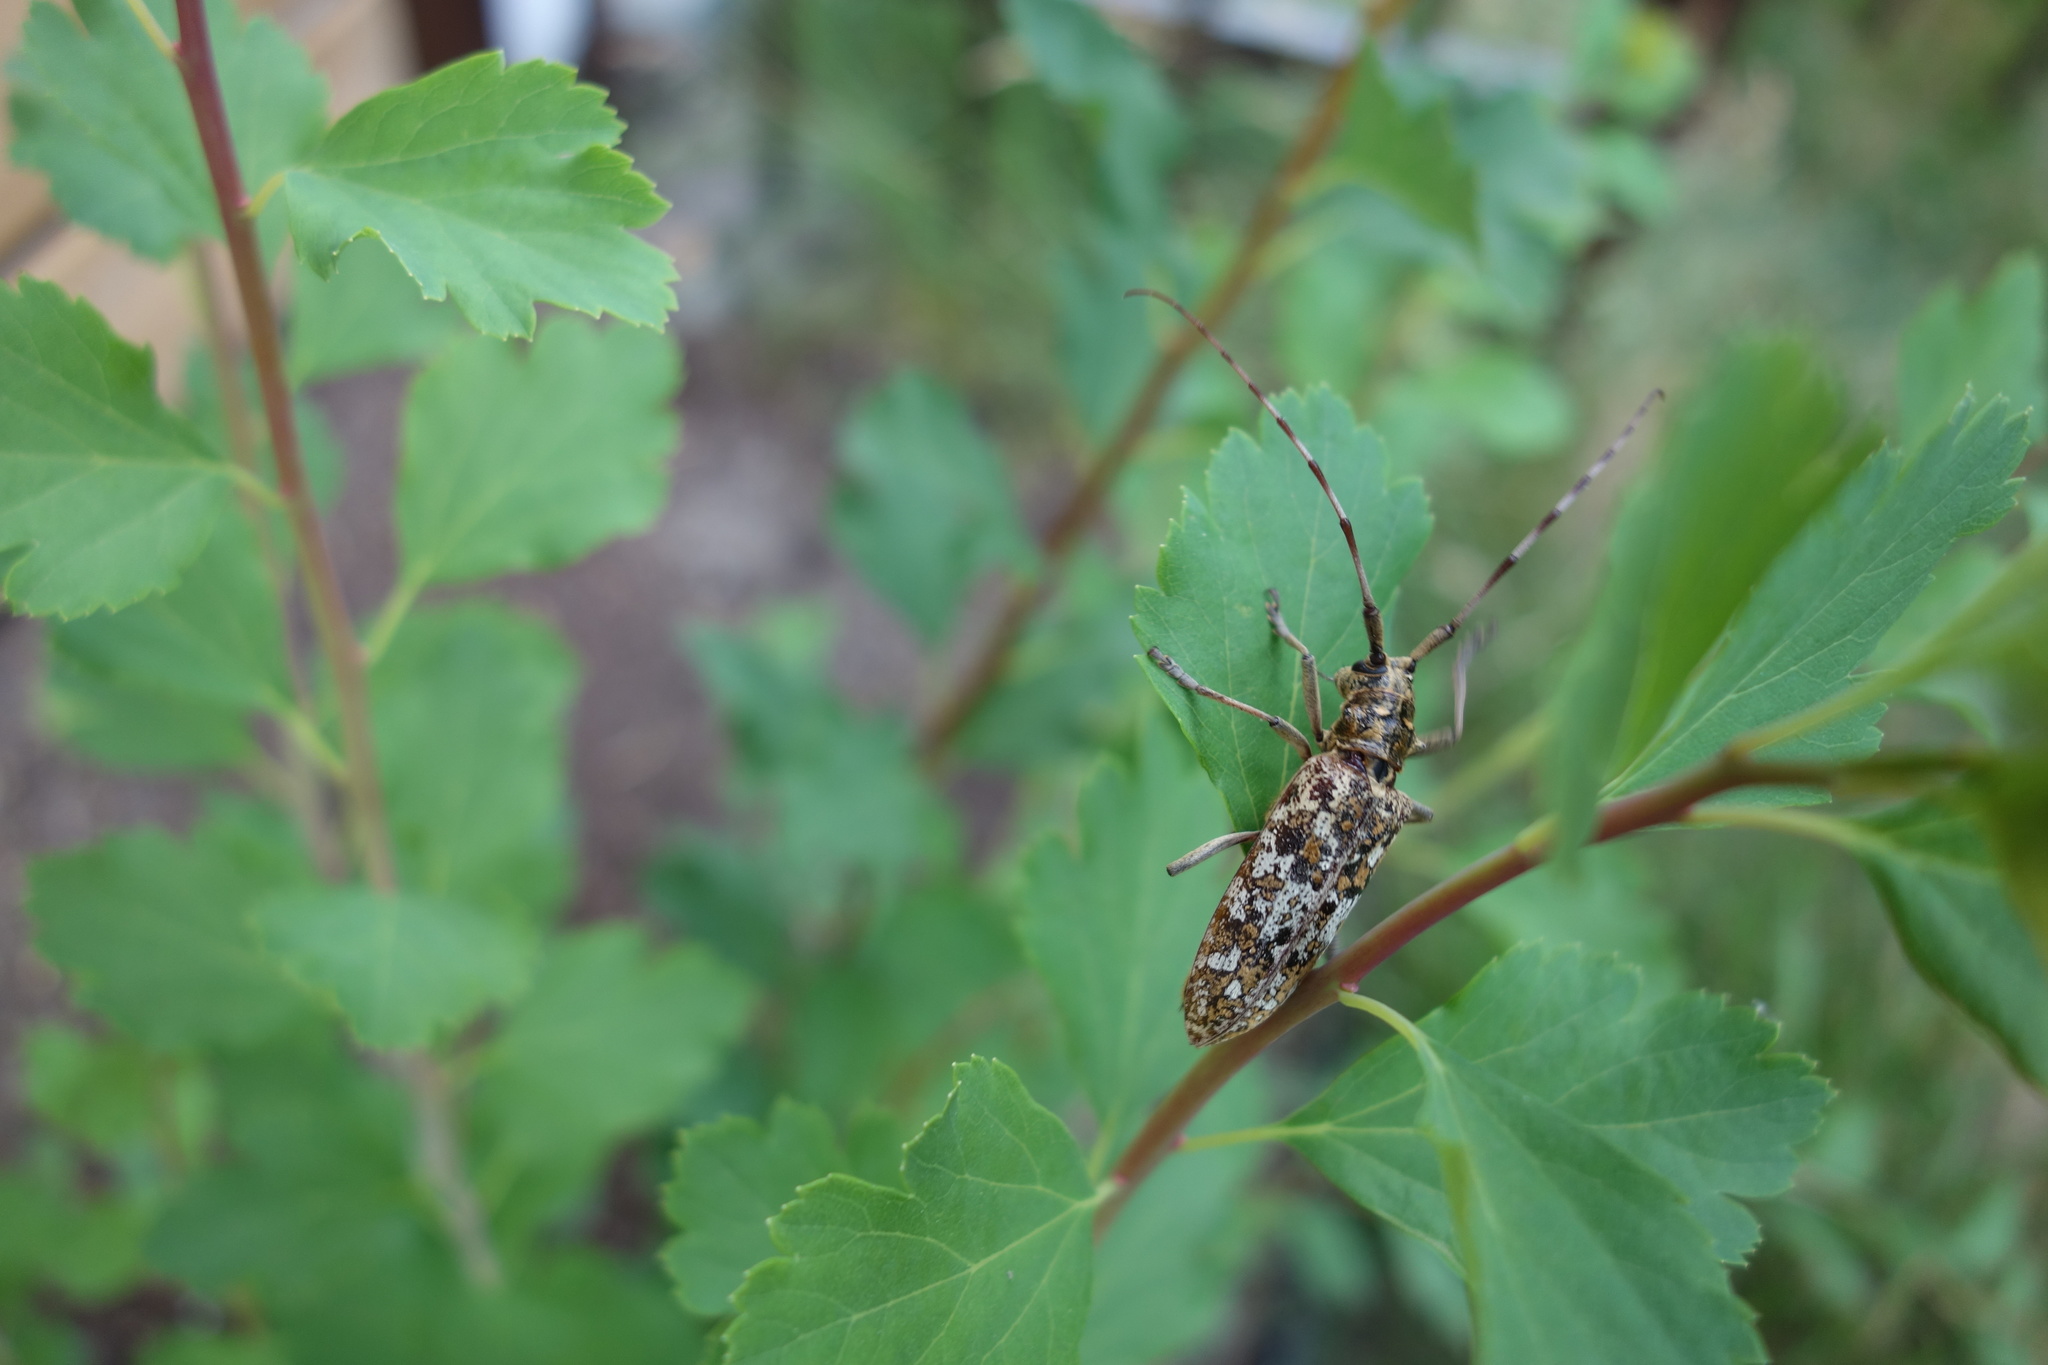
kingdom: Animalia
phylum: Arthropoda
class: Insecta
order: Coleoptera
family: Cerambycidae
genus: Monochamus
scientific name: Monochamus marmorator
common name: Balsam fir sawyer
